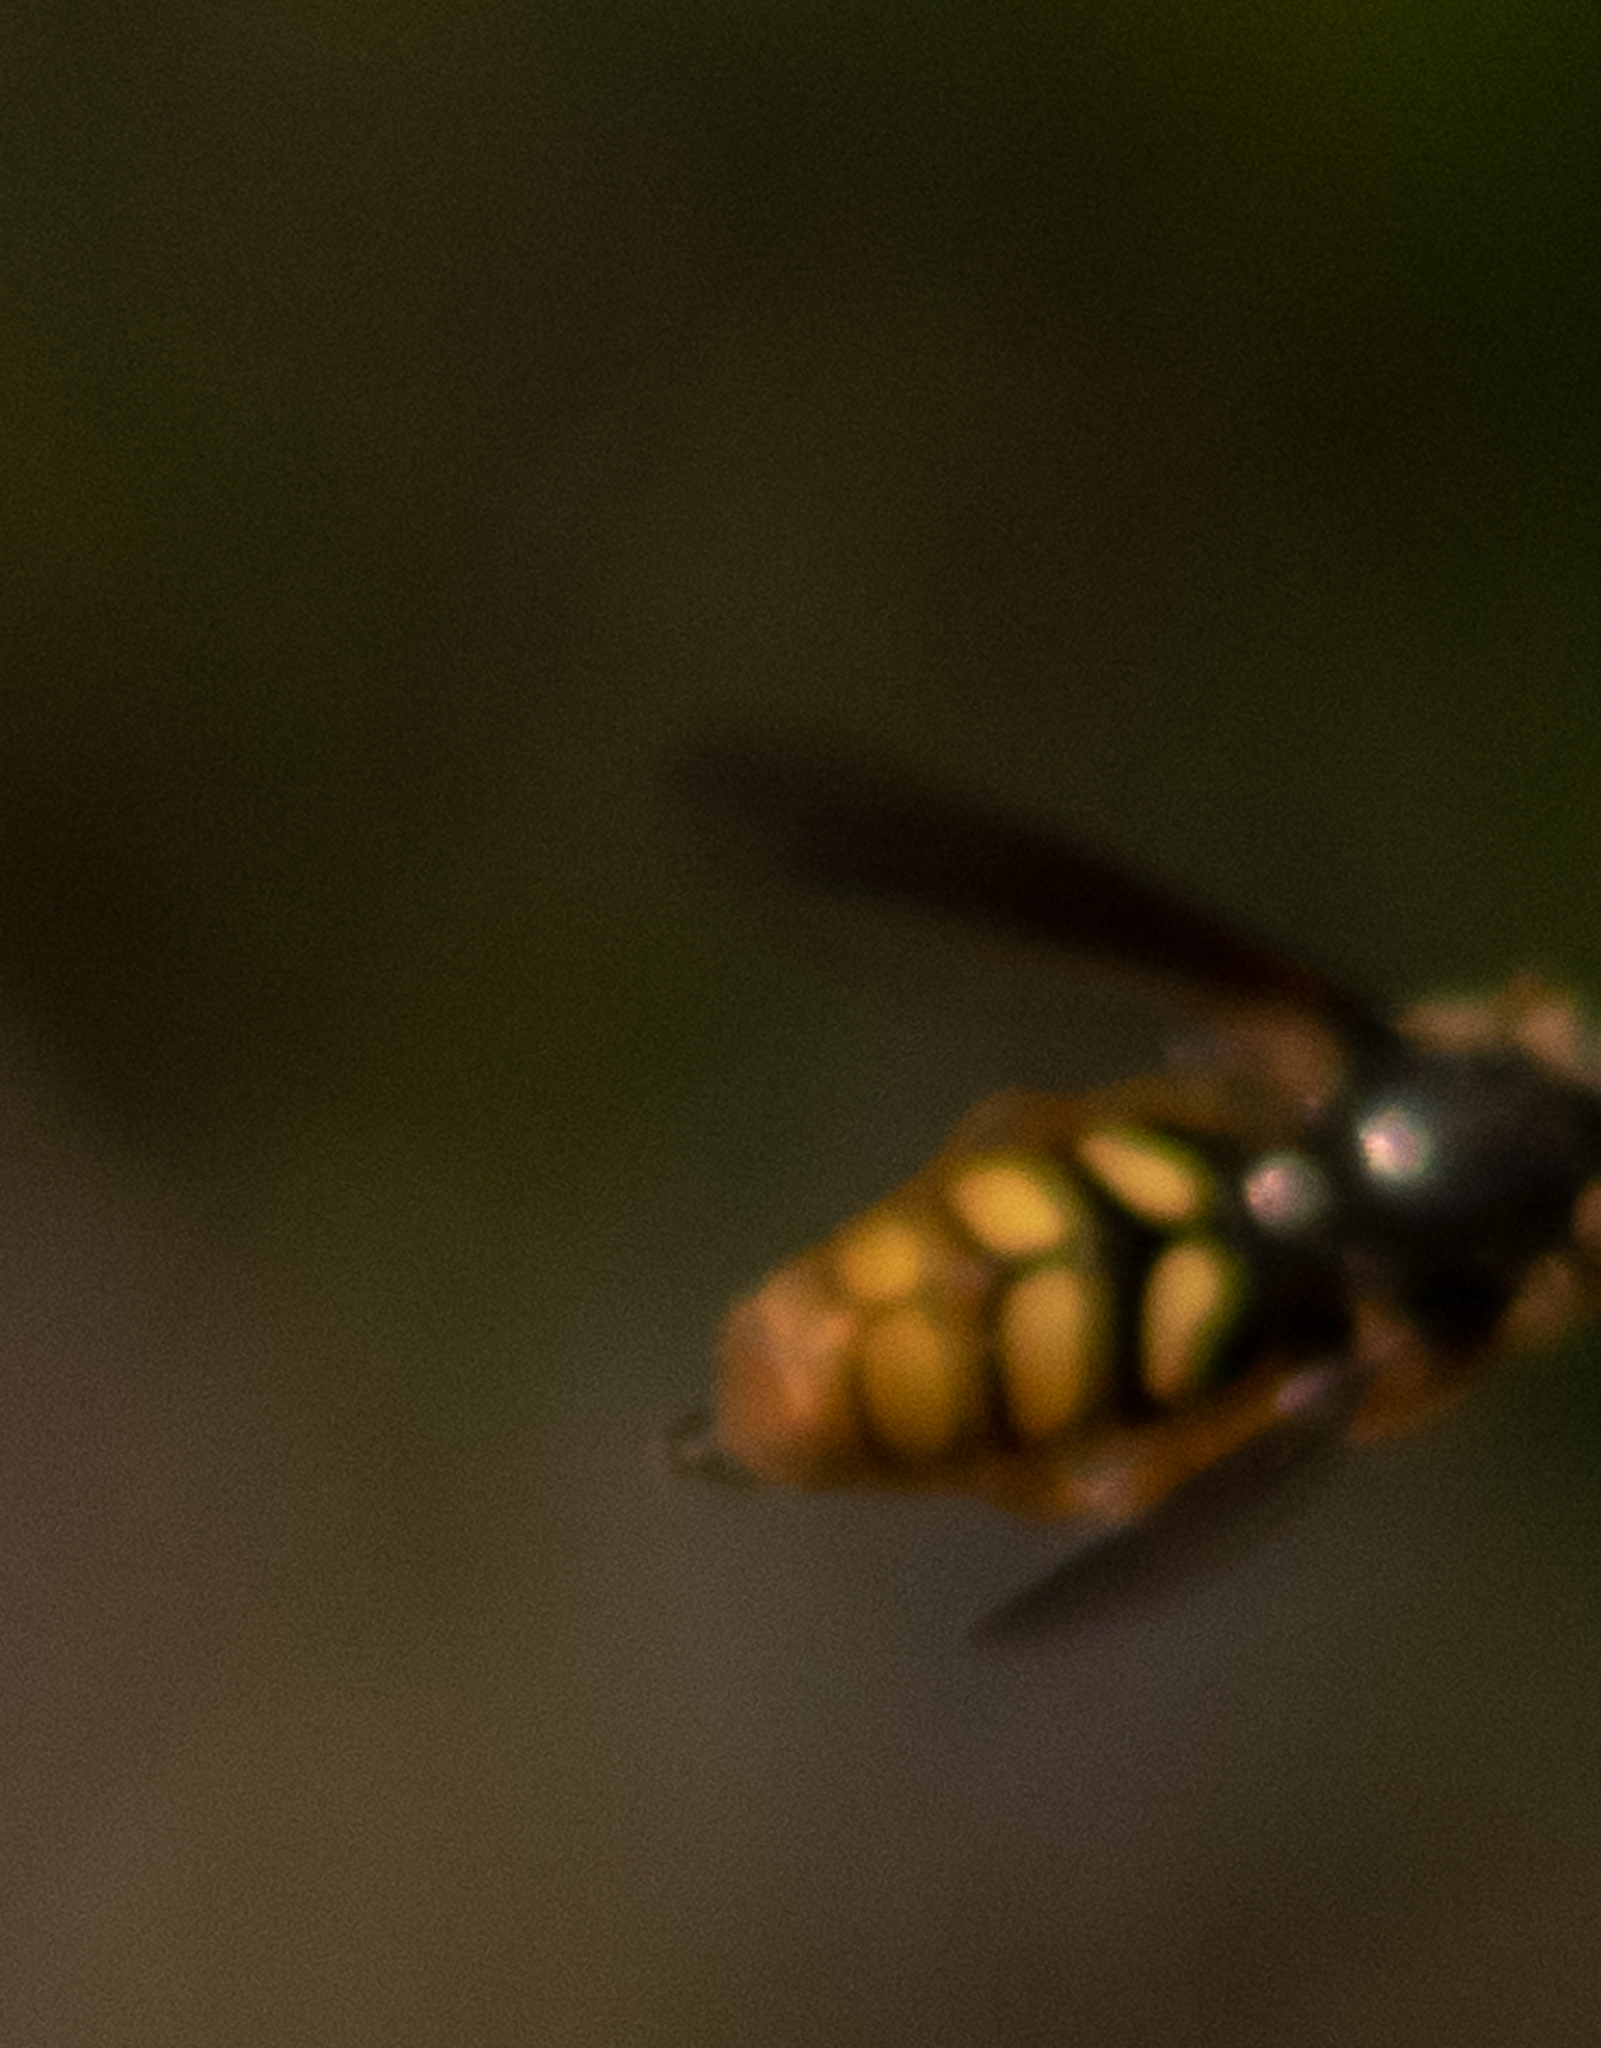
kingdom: Animalia
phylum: Arthropoda
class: Insecta
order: Diptera
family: Syrphidae
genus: Somula
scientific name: Somula decora
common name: Spotted wood fly
